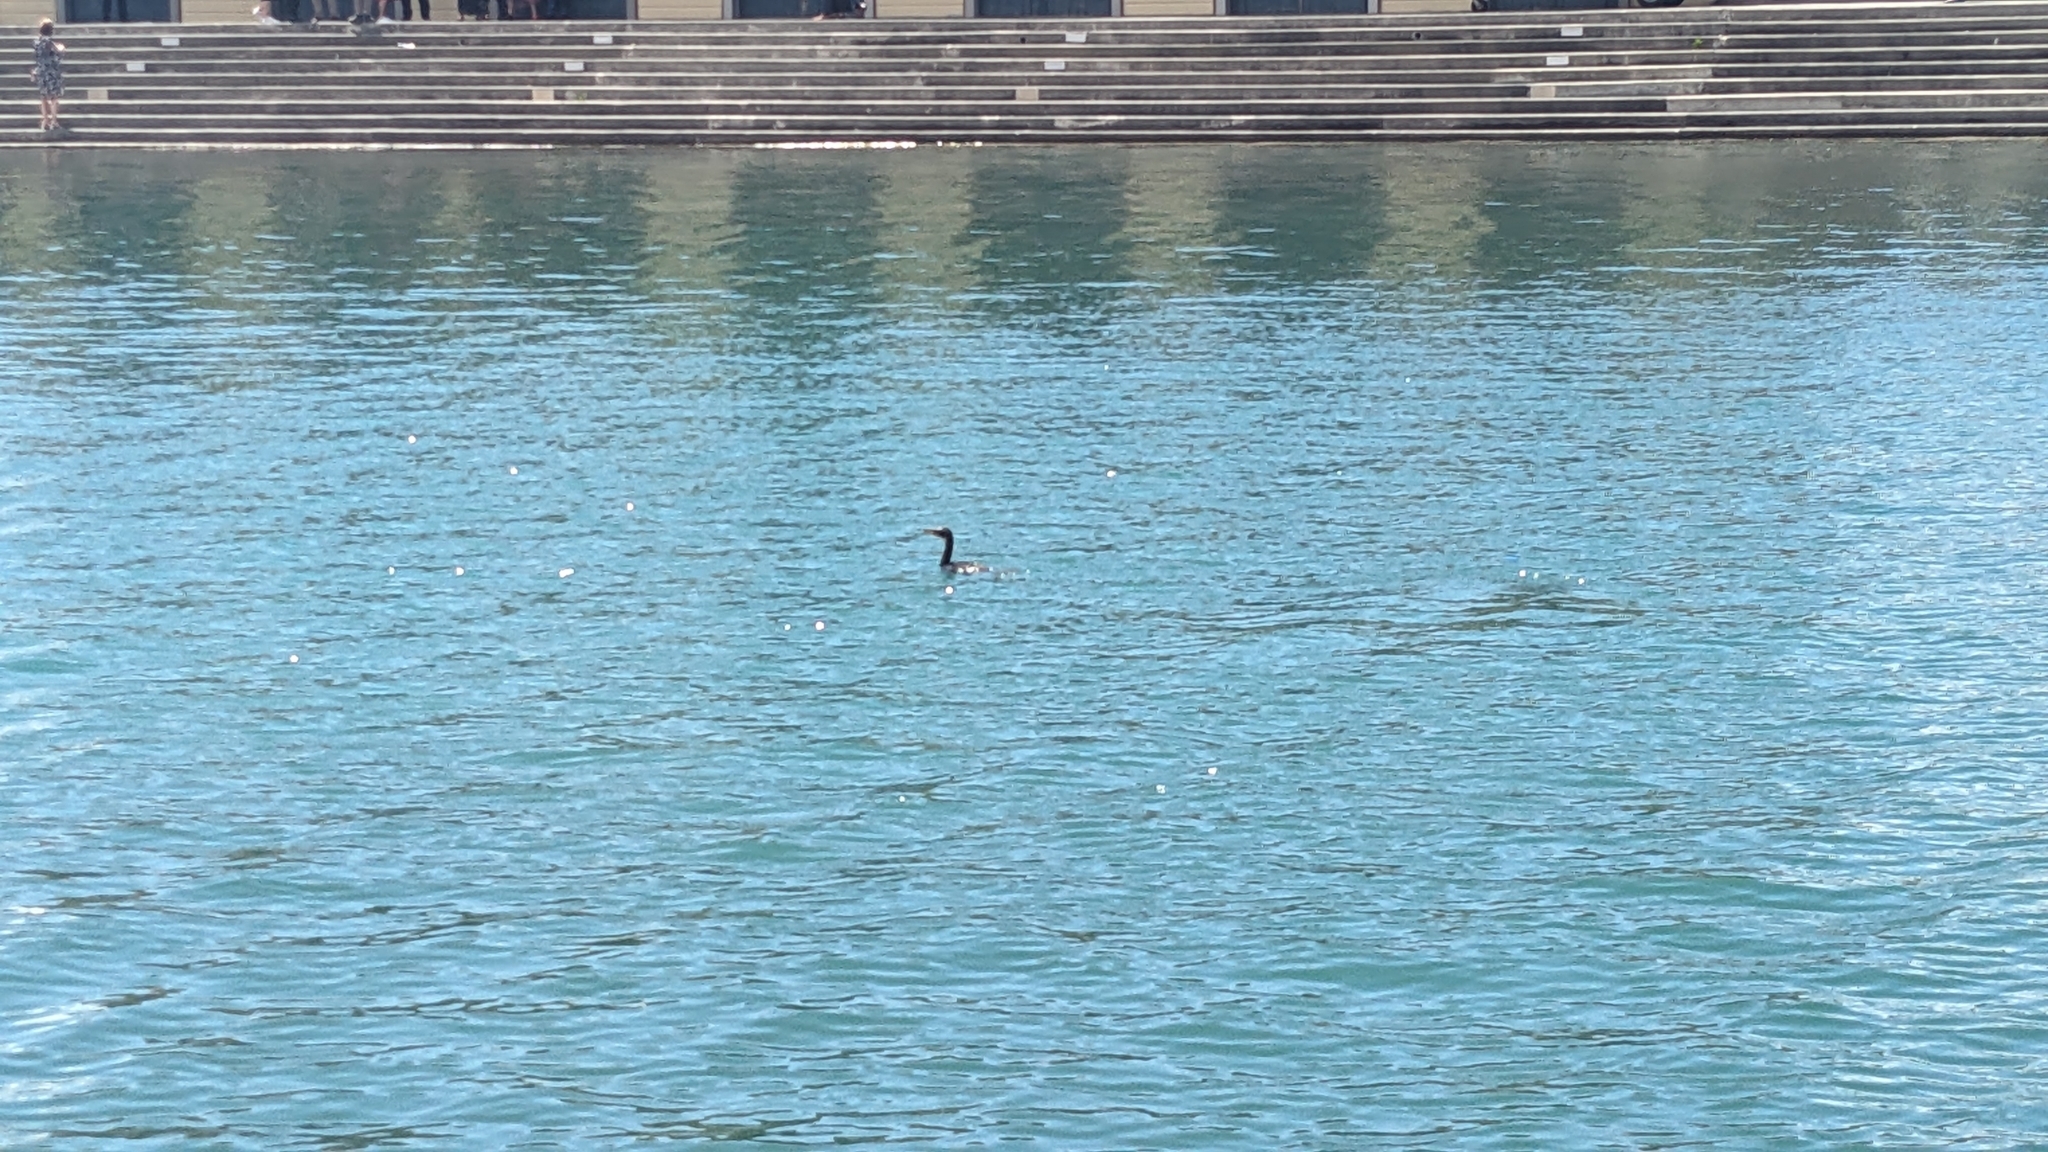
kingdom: Animalia
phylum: Chordata
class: Aves
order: Suliformes
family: Phalacrocoracidae
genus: Microcarbo
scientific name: Microcarbo melanoleucos
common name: Little pied cormorant
